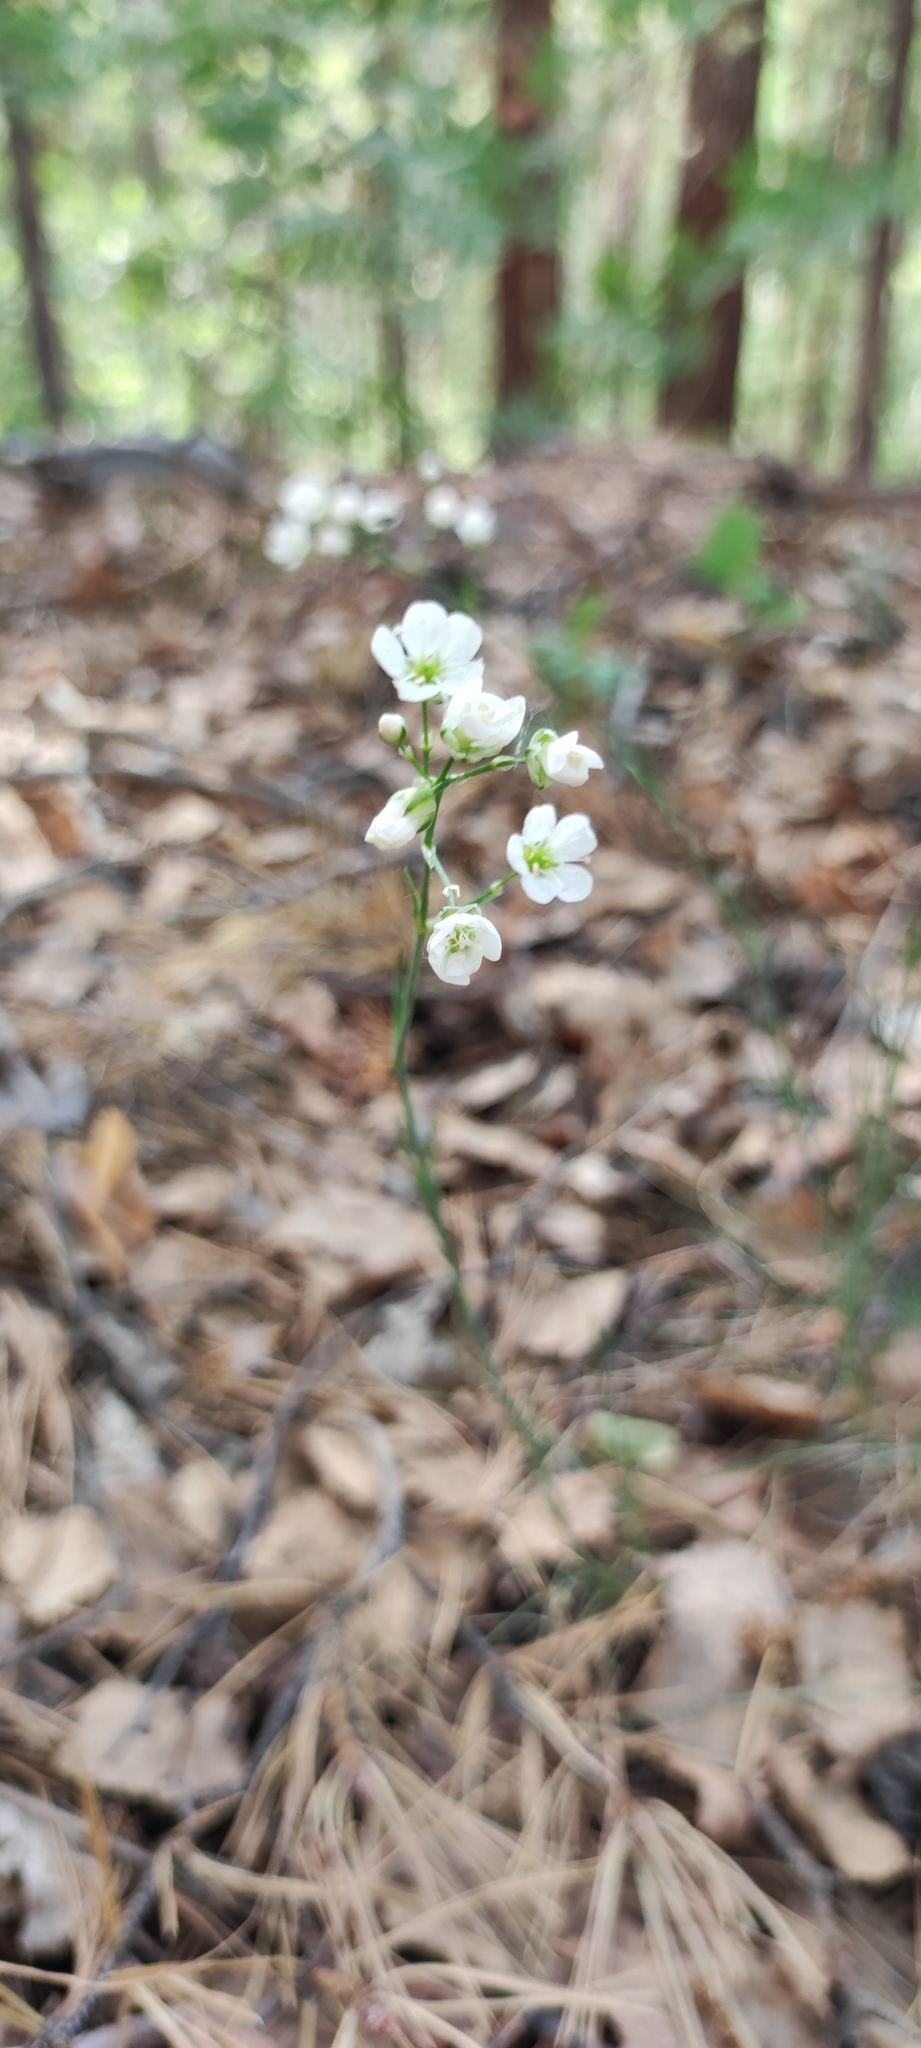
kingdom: Plantae
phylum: Tracheophyta
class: Magnoliopsida
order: Caryophyllales
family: Caryophyllaceae
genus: Eremogone
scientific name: Eremogone saxatilis
